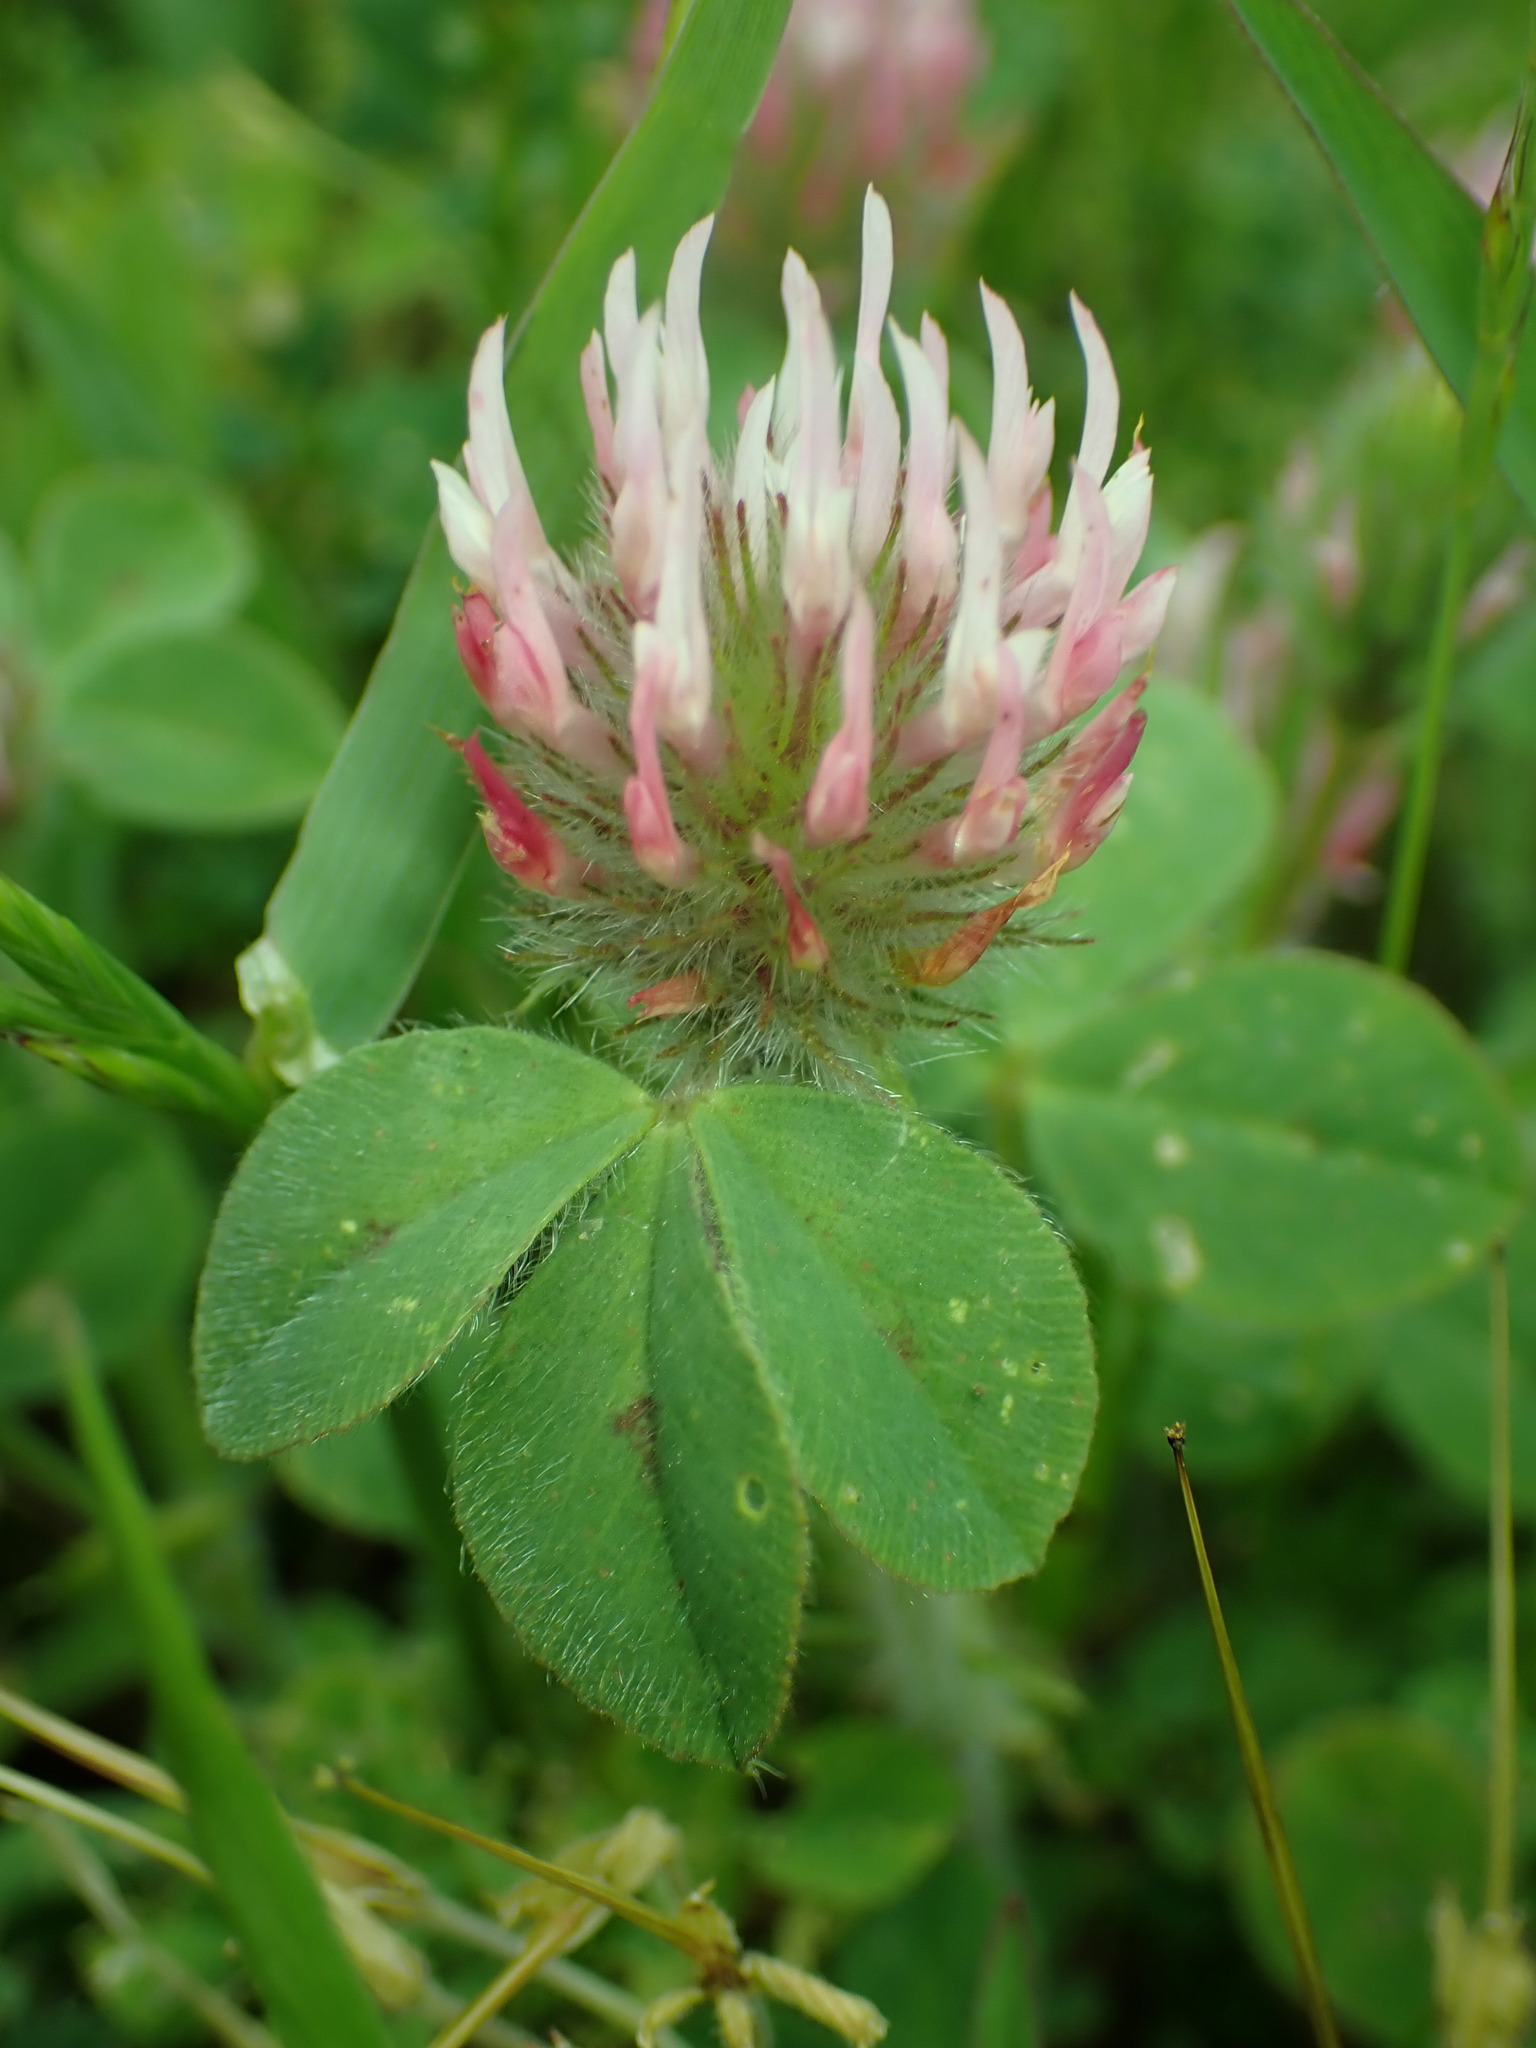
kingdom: Plantae
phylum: Tracheophyta
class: Magnoliopsida
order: Fabales
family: Fabaceae
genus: Trifolium
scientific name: Trifolium hirtum
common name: Rose clover
